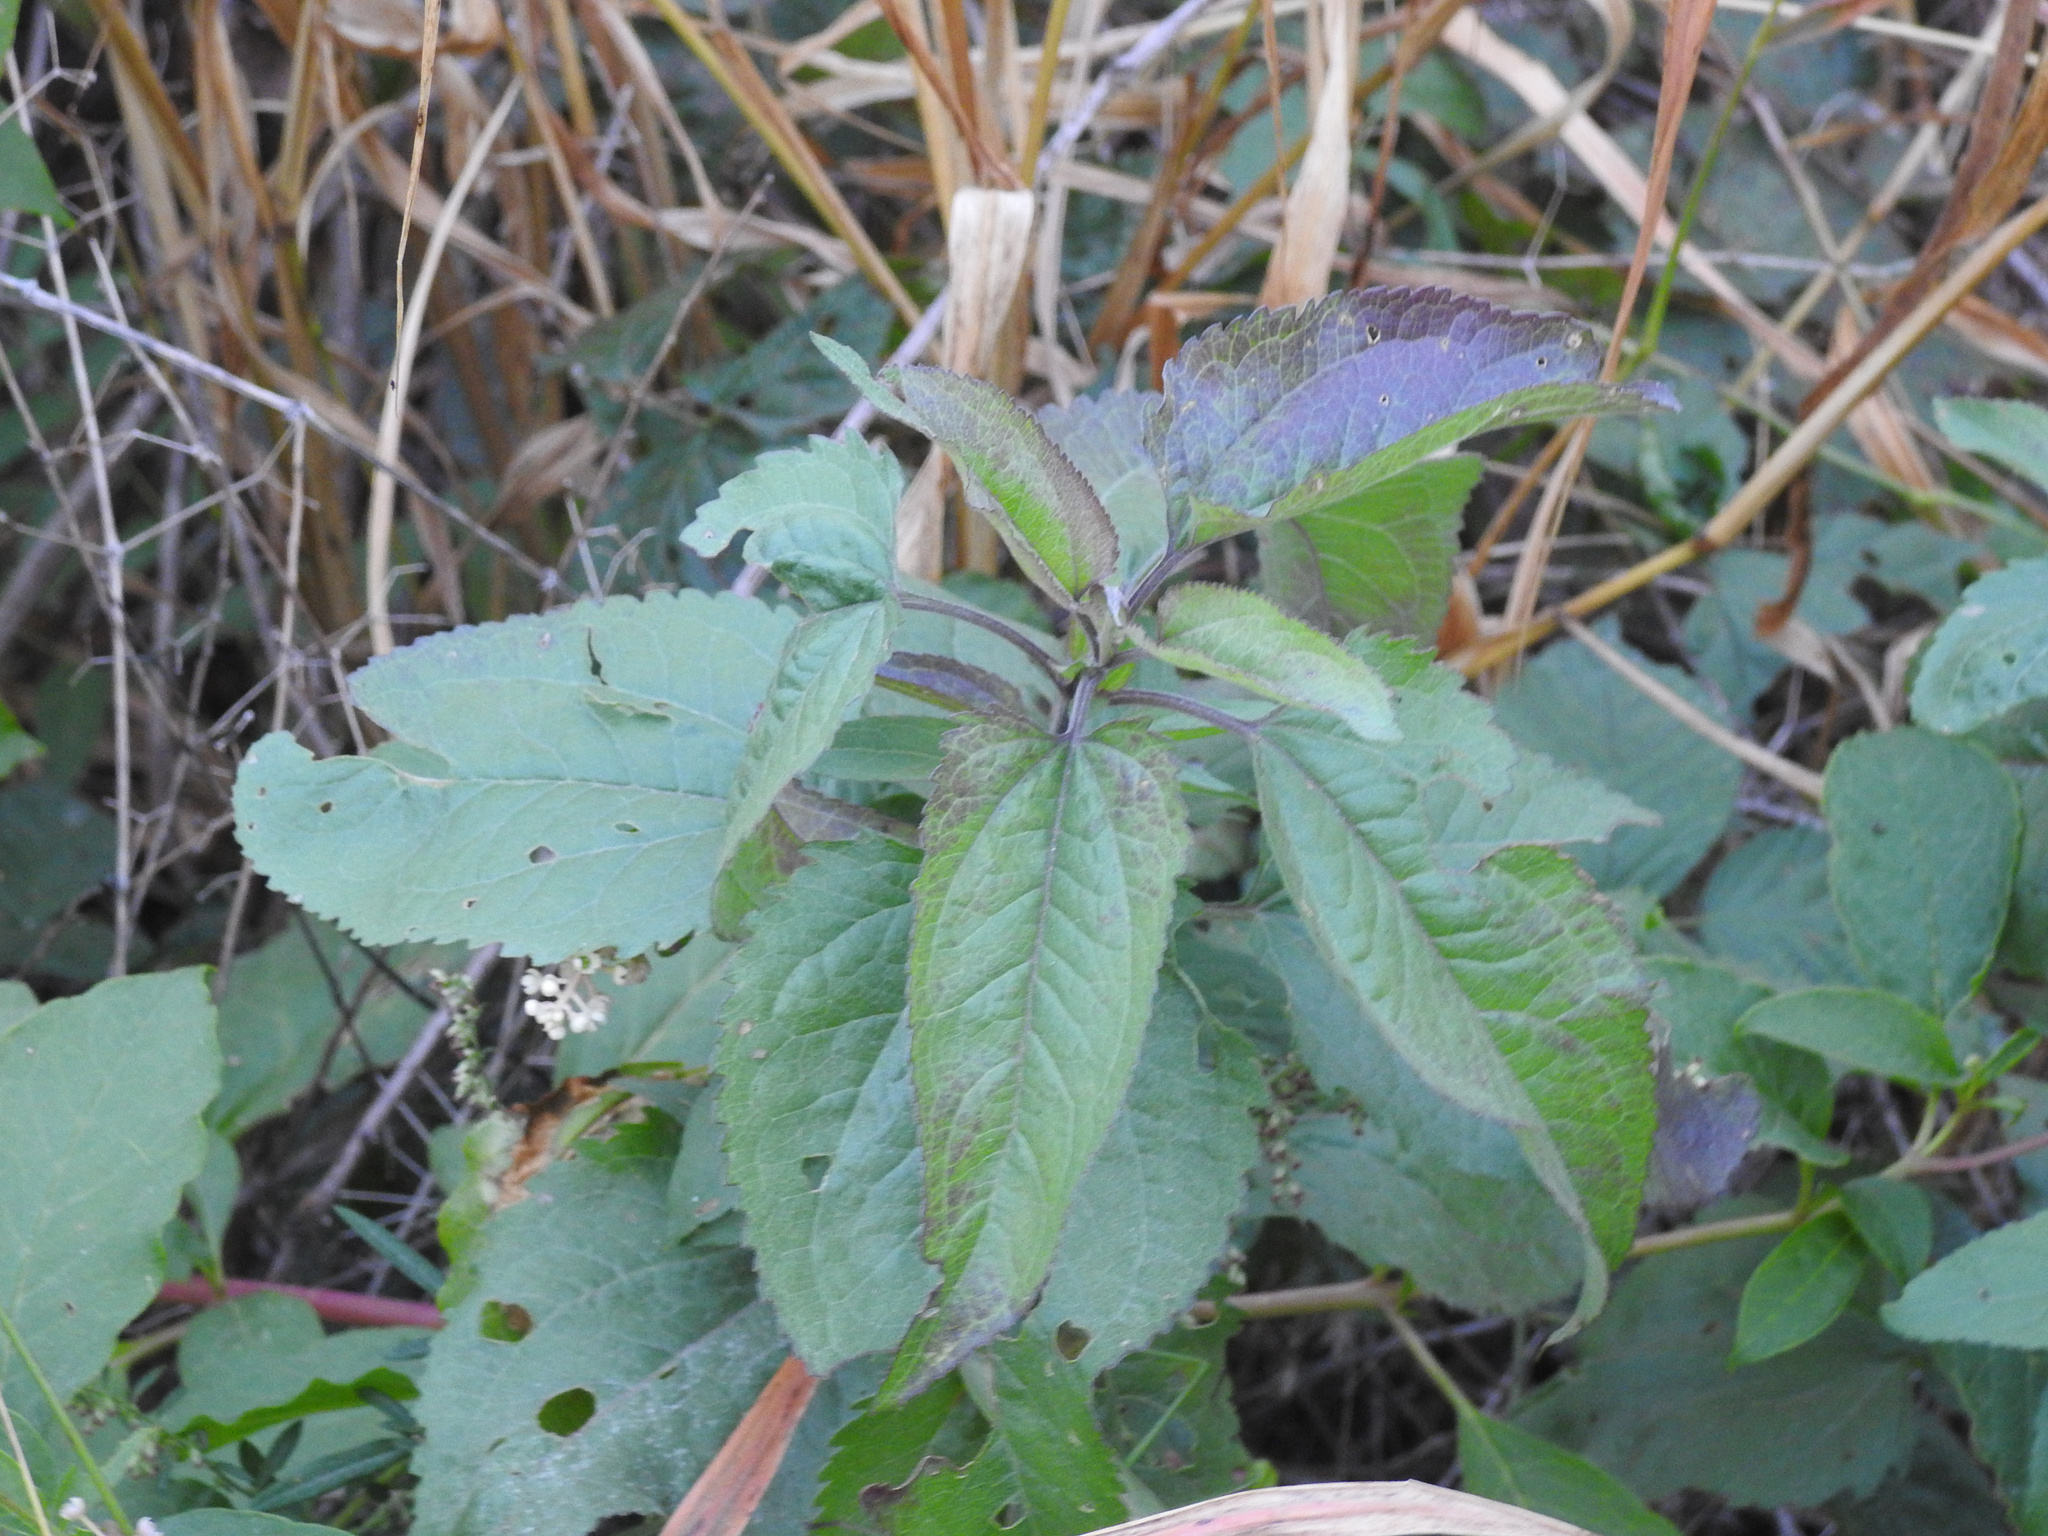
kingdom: Plantae
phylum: Tracheophyta
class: Magnoliopsida
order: Asterales
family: Asteraceae
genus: Eupatorium
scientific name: Eupatorium serotinum
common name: Late boneset
